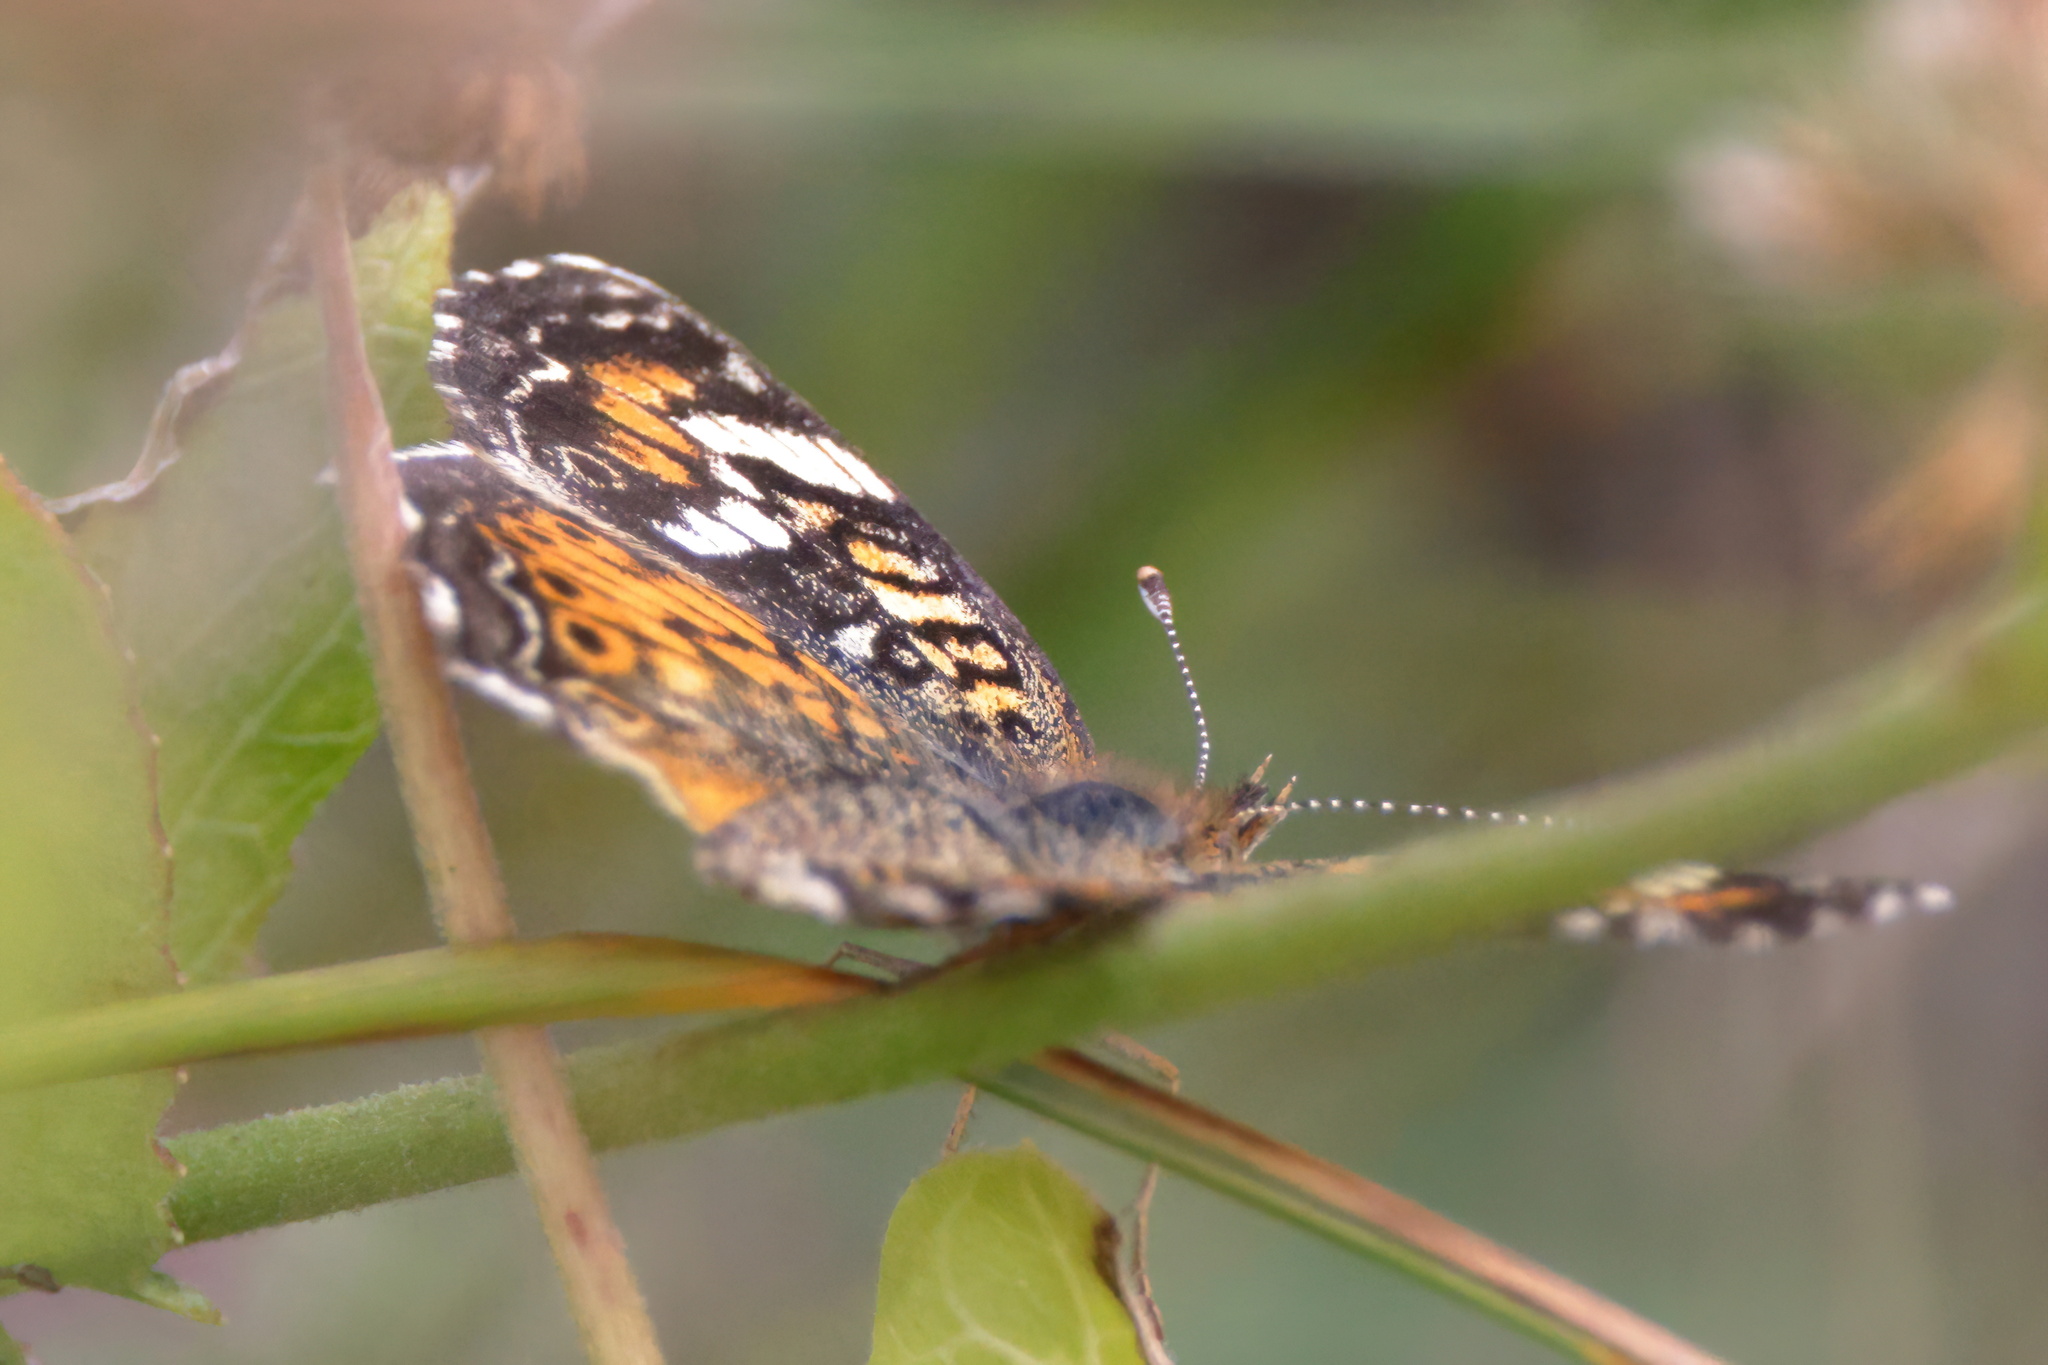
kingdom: Animalia
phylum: Arthropoda
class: Insecta
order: Lepidoptera
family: Nymphalidae
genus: Phyciodes
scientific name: Phyciodes phaon
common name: Phaon crescent
